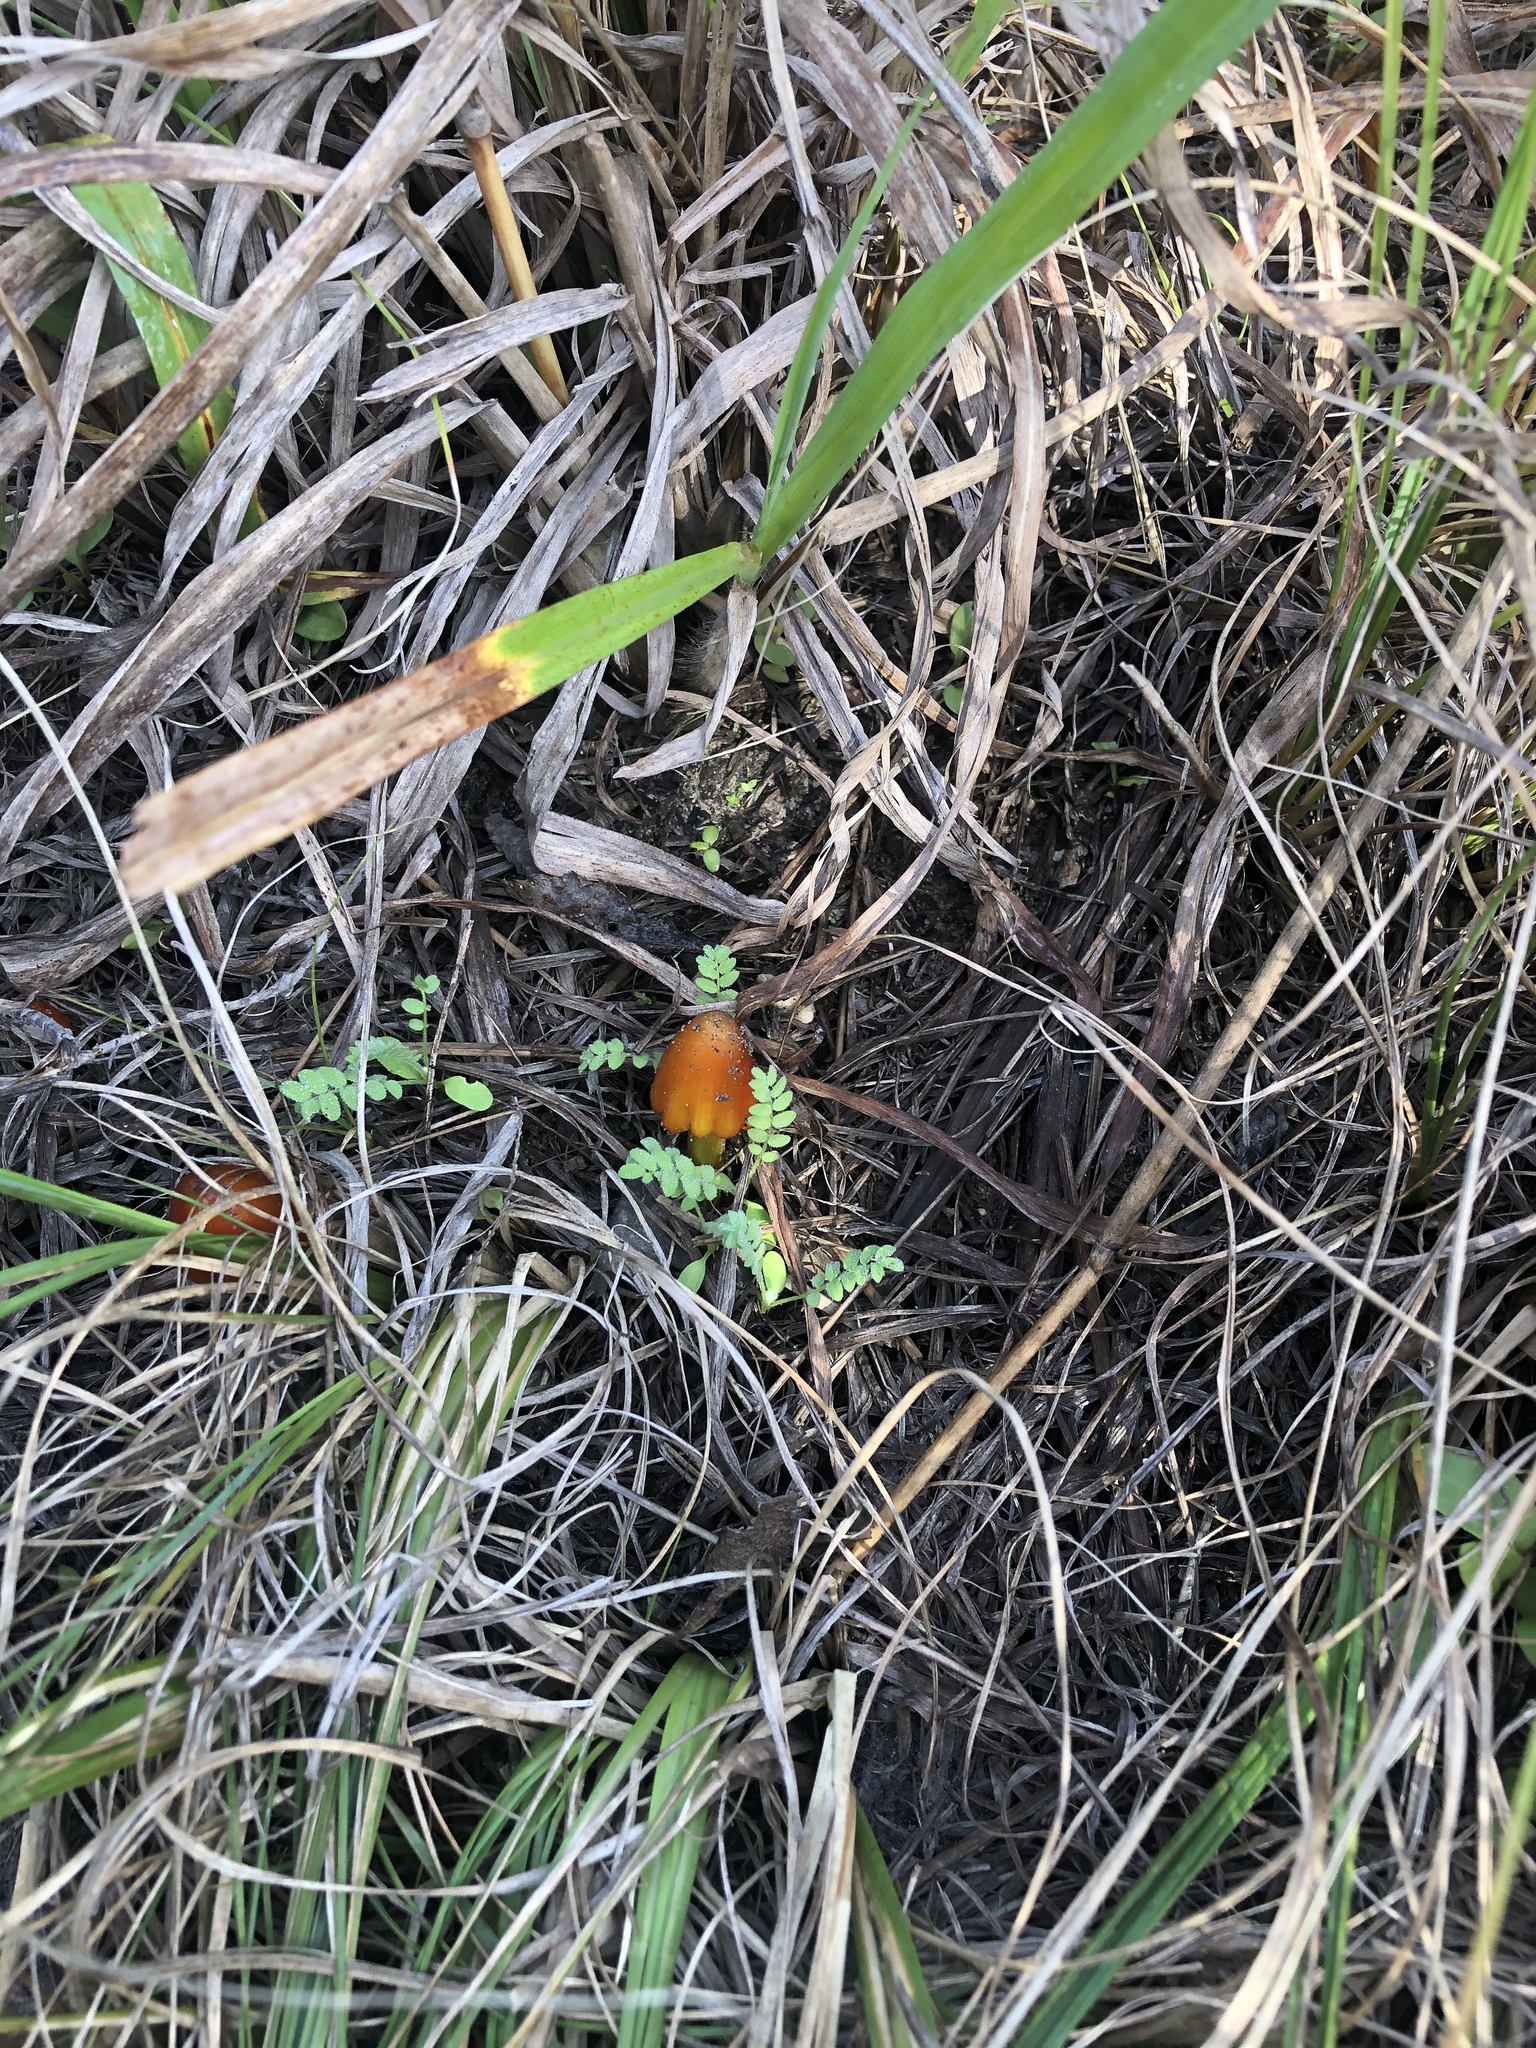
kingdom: Fungi
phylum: Basidiomycota
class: Agaricomycetes
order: Agaricales
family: Hygrophoraceae
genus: Hygrocybe
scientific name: Hygrocybe conica
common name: Blackening wax-cap
